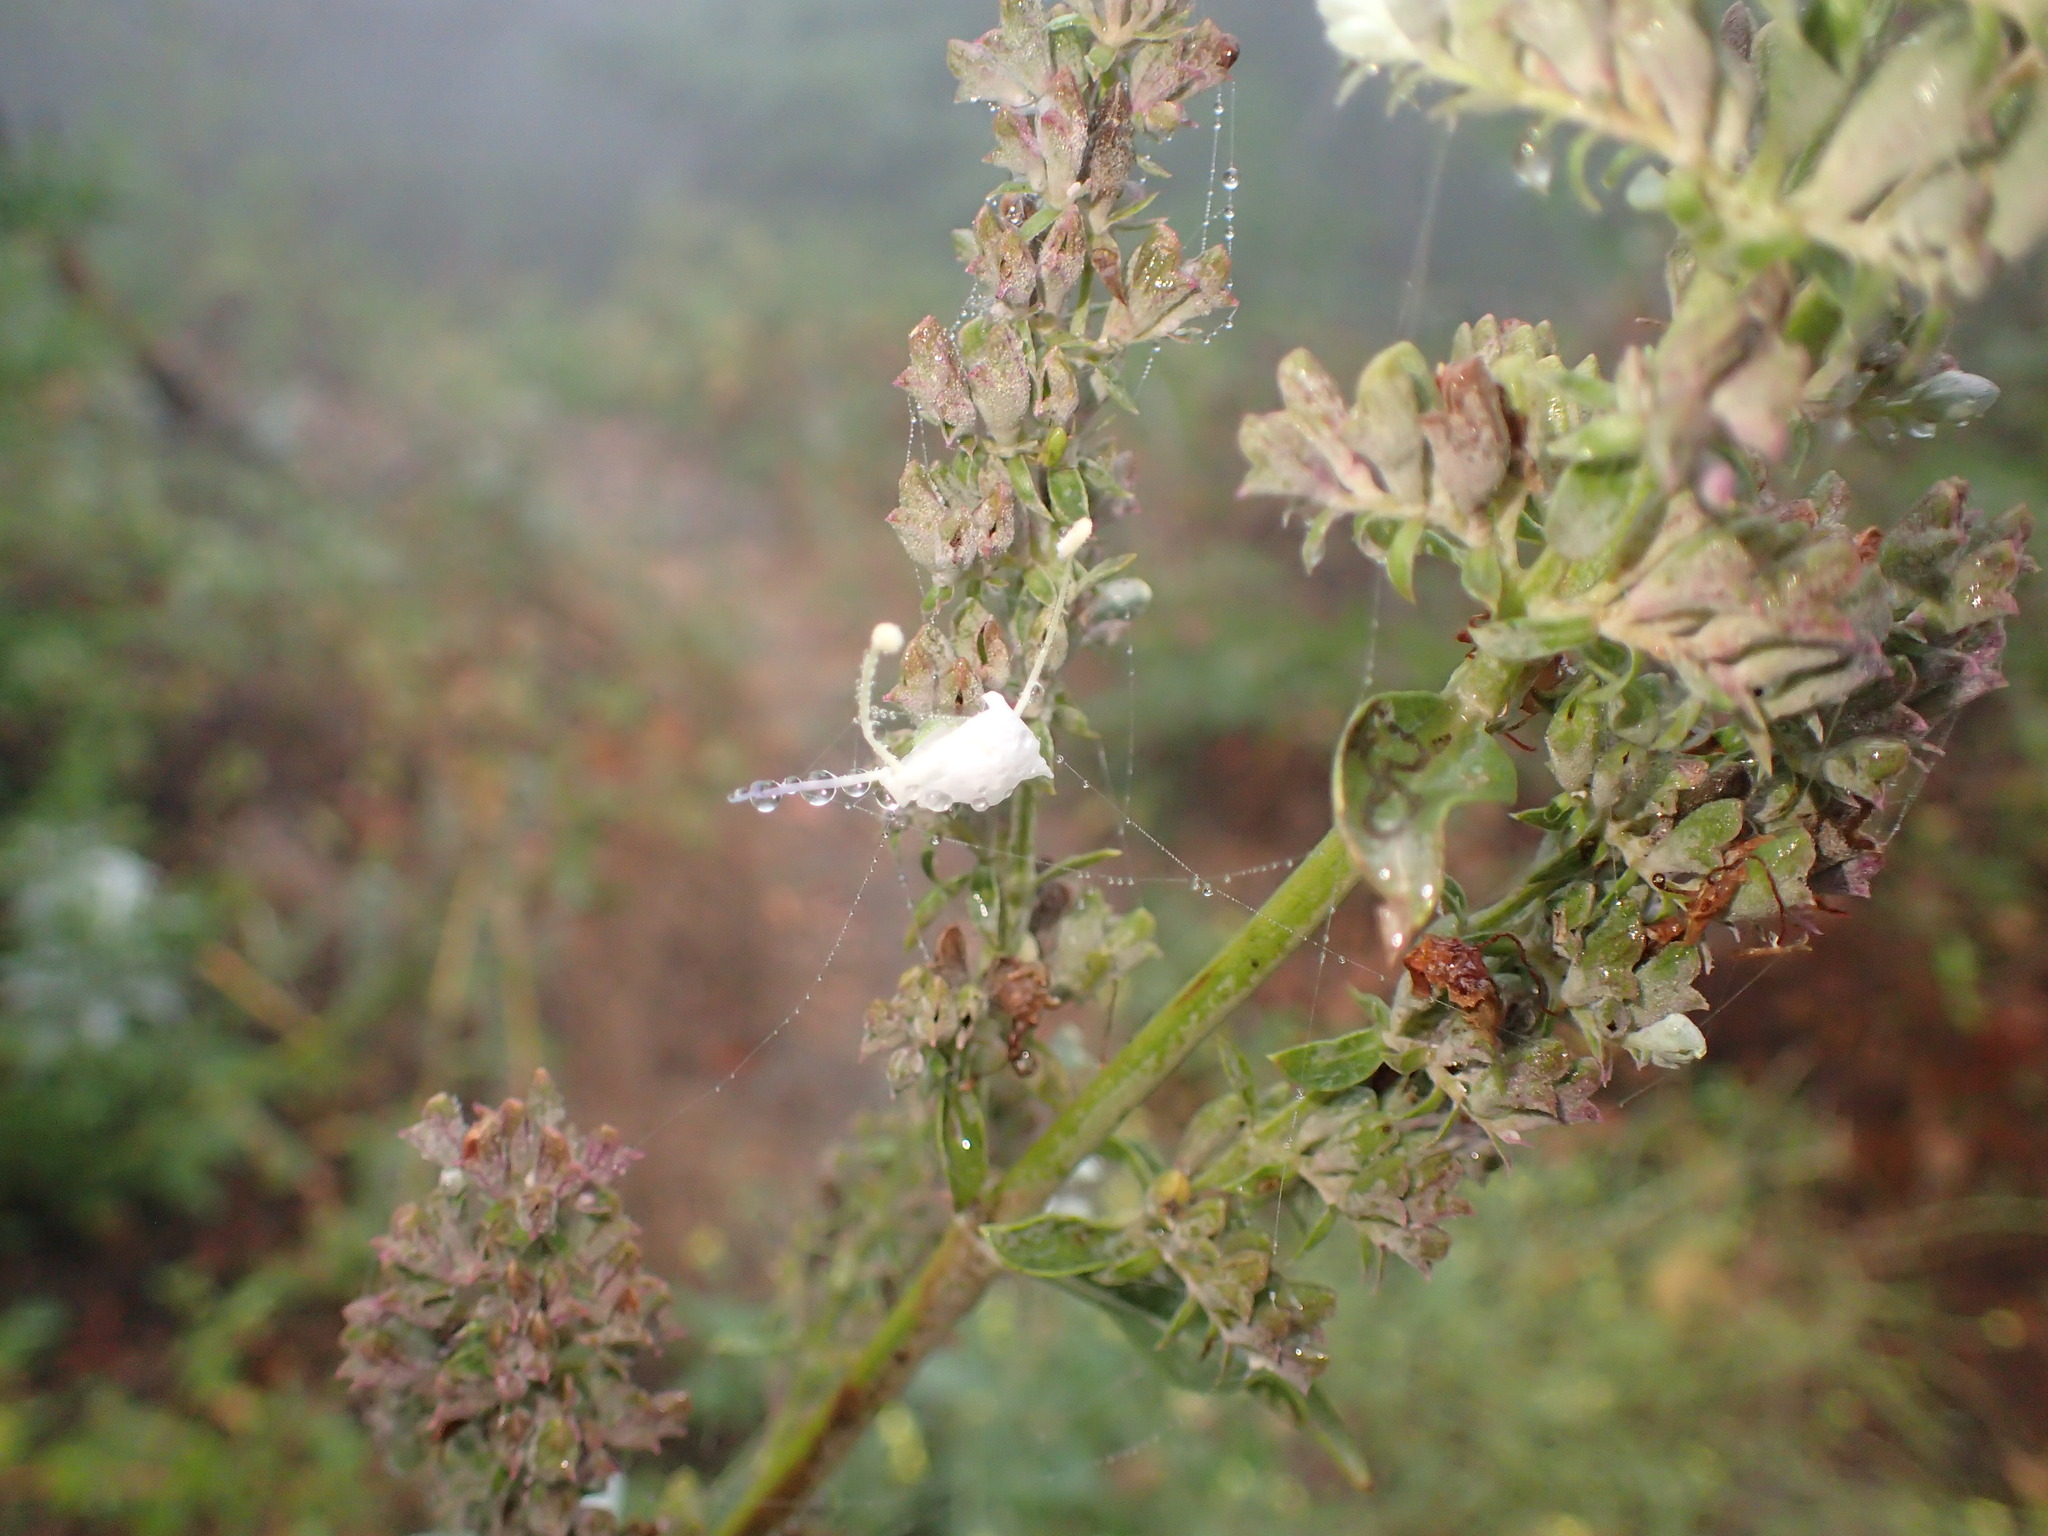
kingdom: Plantae
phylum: Tracheophyta
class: Magnoliopsida
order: Lamiales
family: Lamiaceae
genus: Salvia
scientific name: Salvia apiana
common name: White sage
